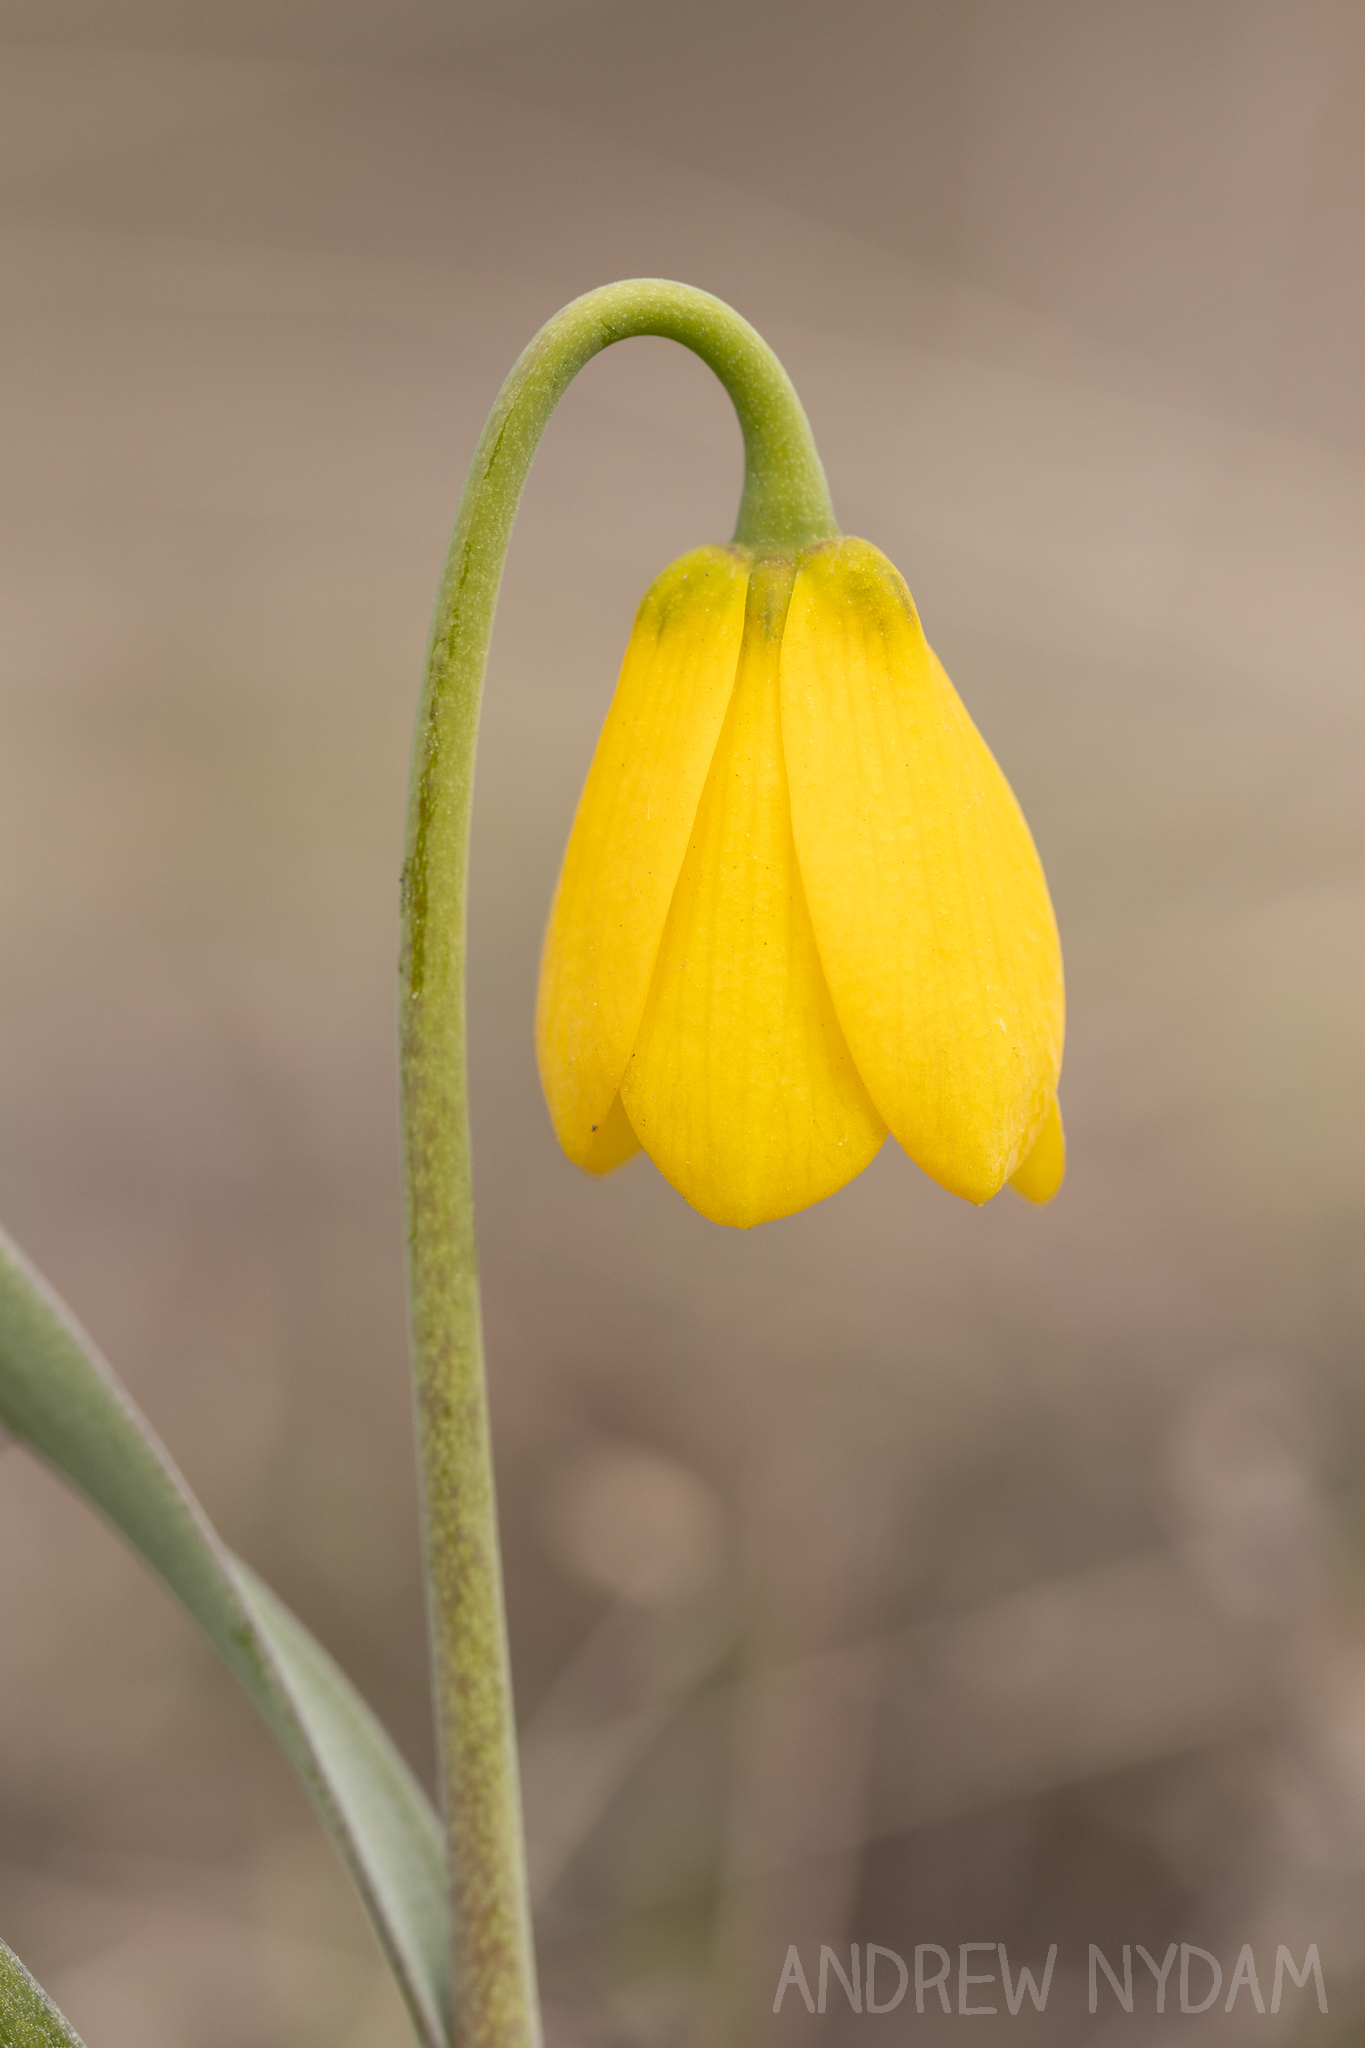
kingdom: Plantae
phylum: Tracheophyta
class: Liliopsida
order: Liliales
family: Liliaceae
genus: Fritillaria
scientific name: Fritillaria pudica
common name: Yellow fritillary
